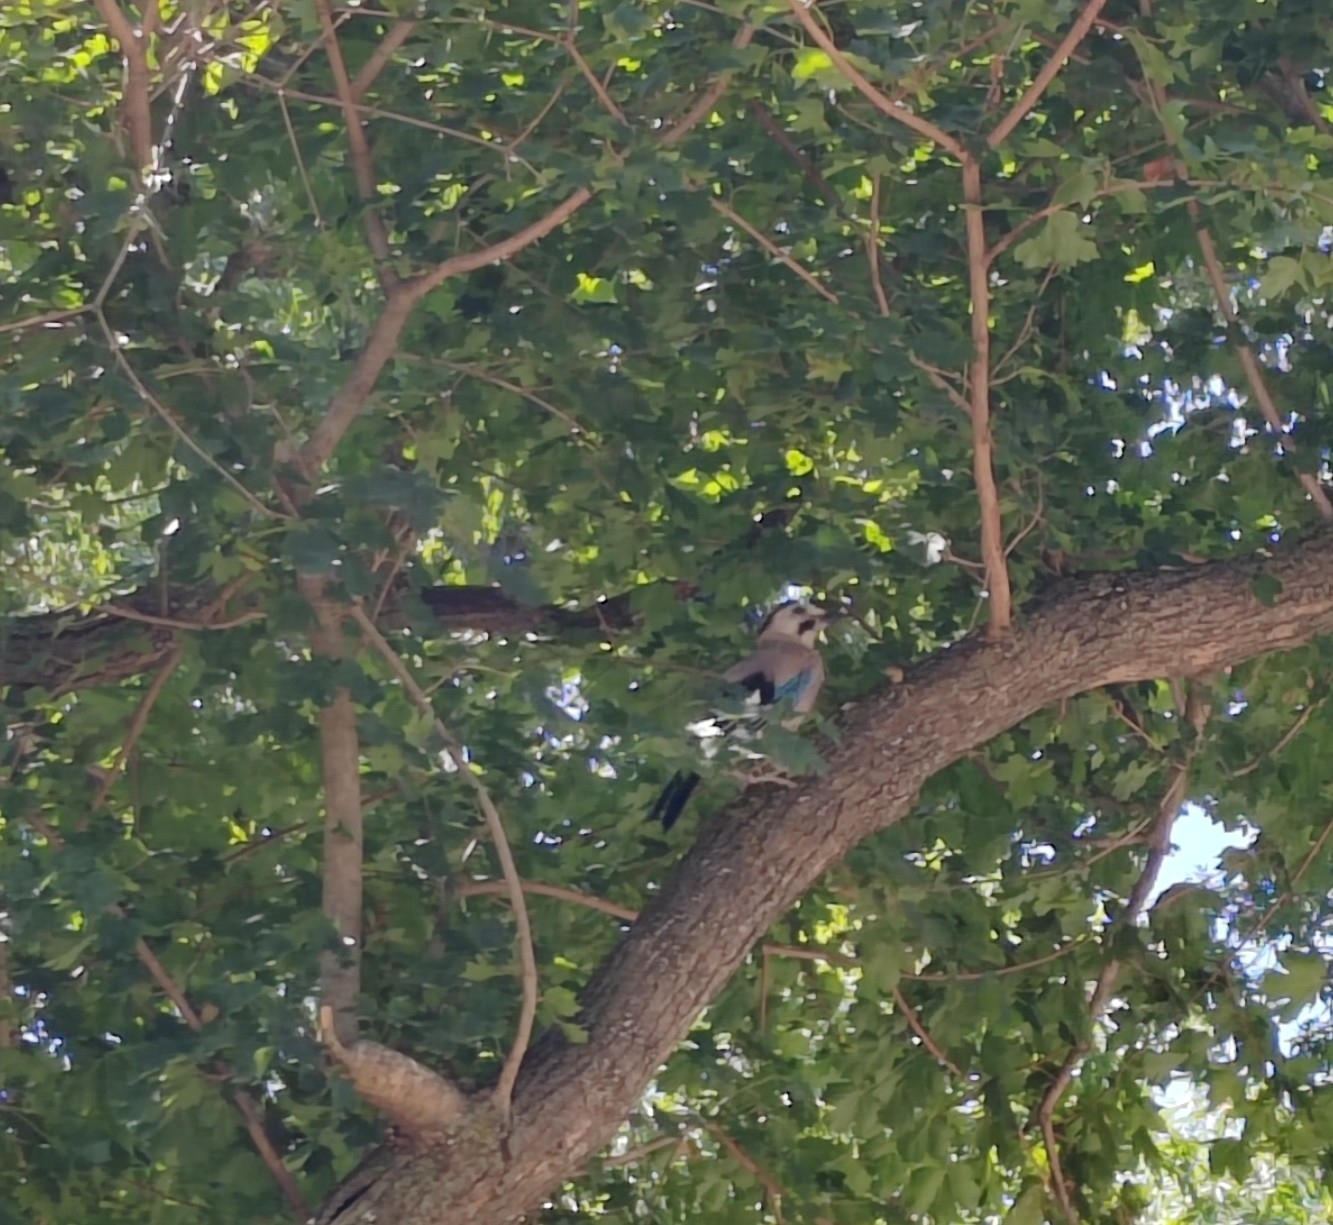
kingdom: Animalia
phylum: Chordata
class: Aves
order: Passeriformes
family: Corvidae
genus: Garrulus
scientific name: Garrulus glandarius
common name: Eurasian jay
